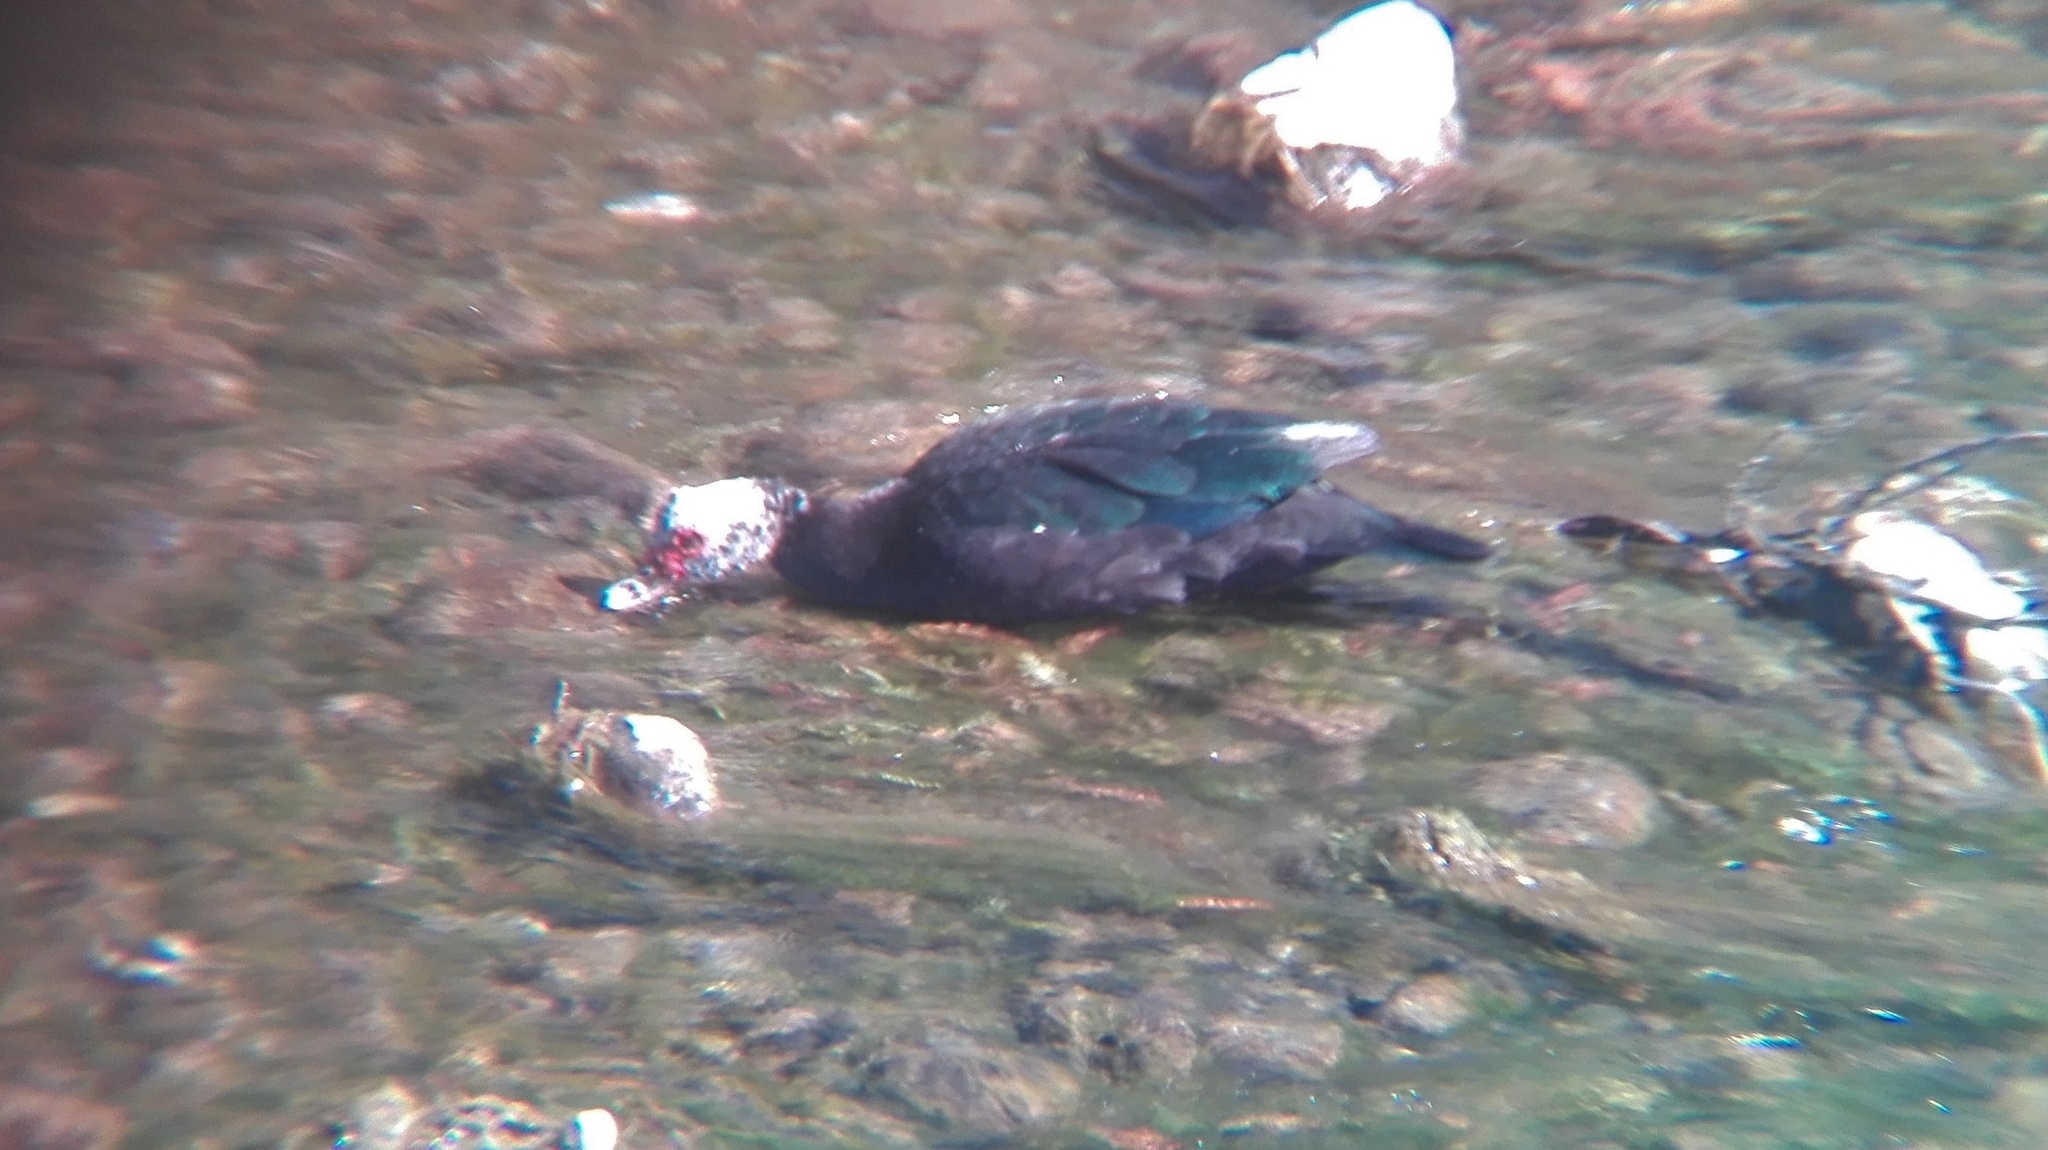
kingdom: Animalia
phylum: Chordata
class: Aves
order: Anseriformes
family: Anatidae
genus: Cairina
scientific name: Cairina moschata
